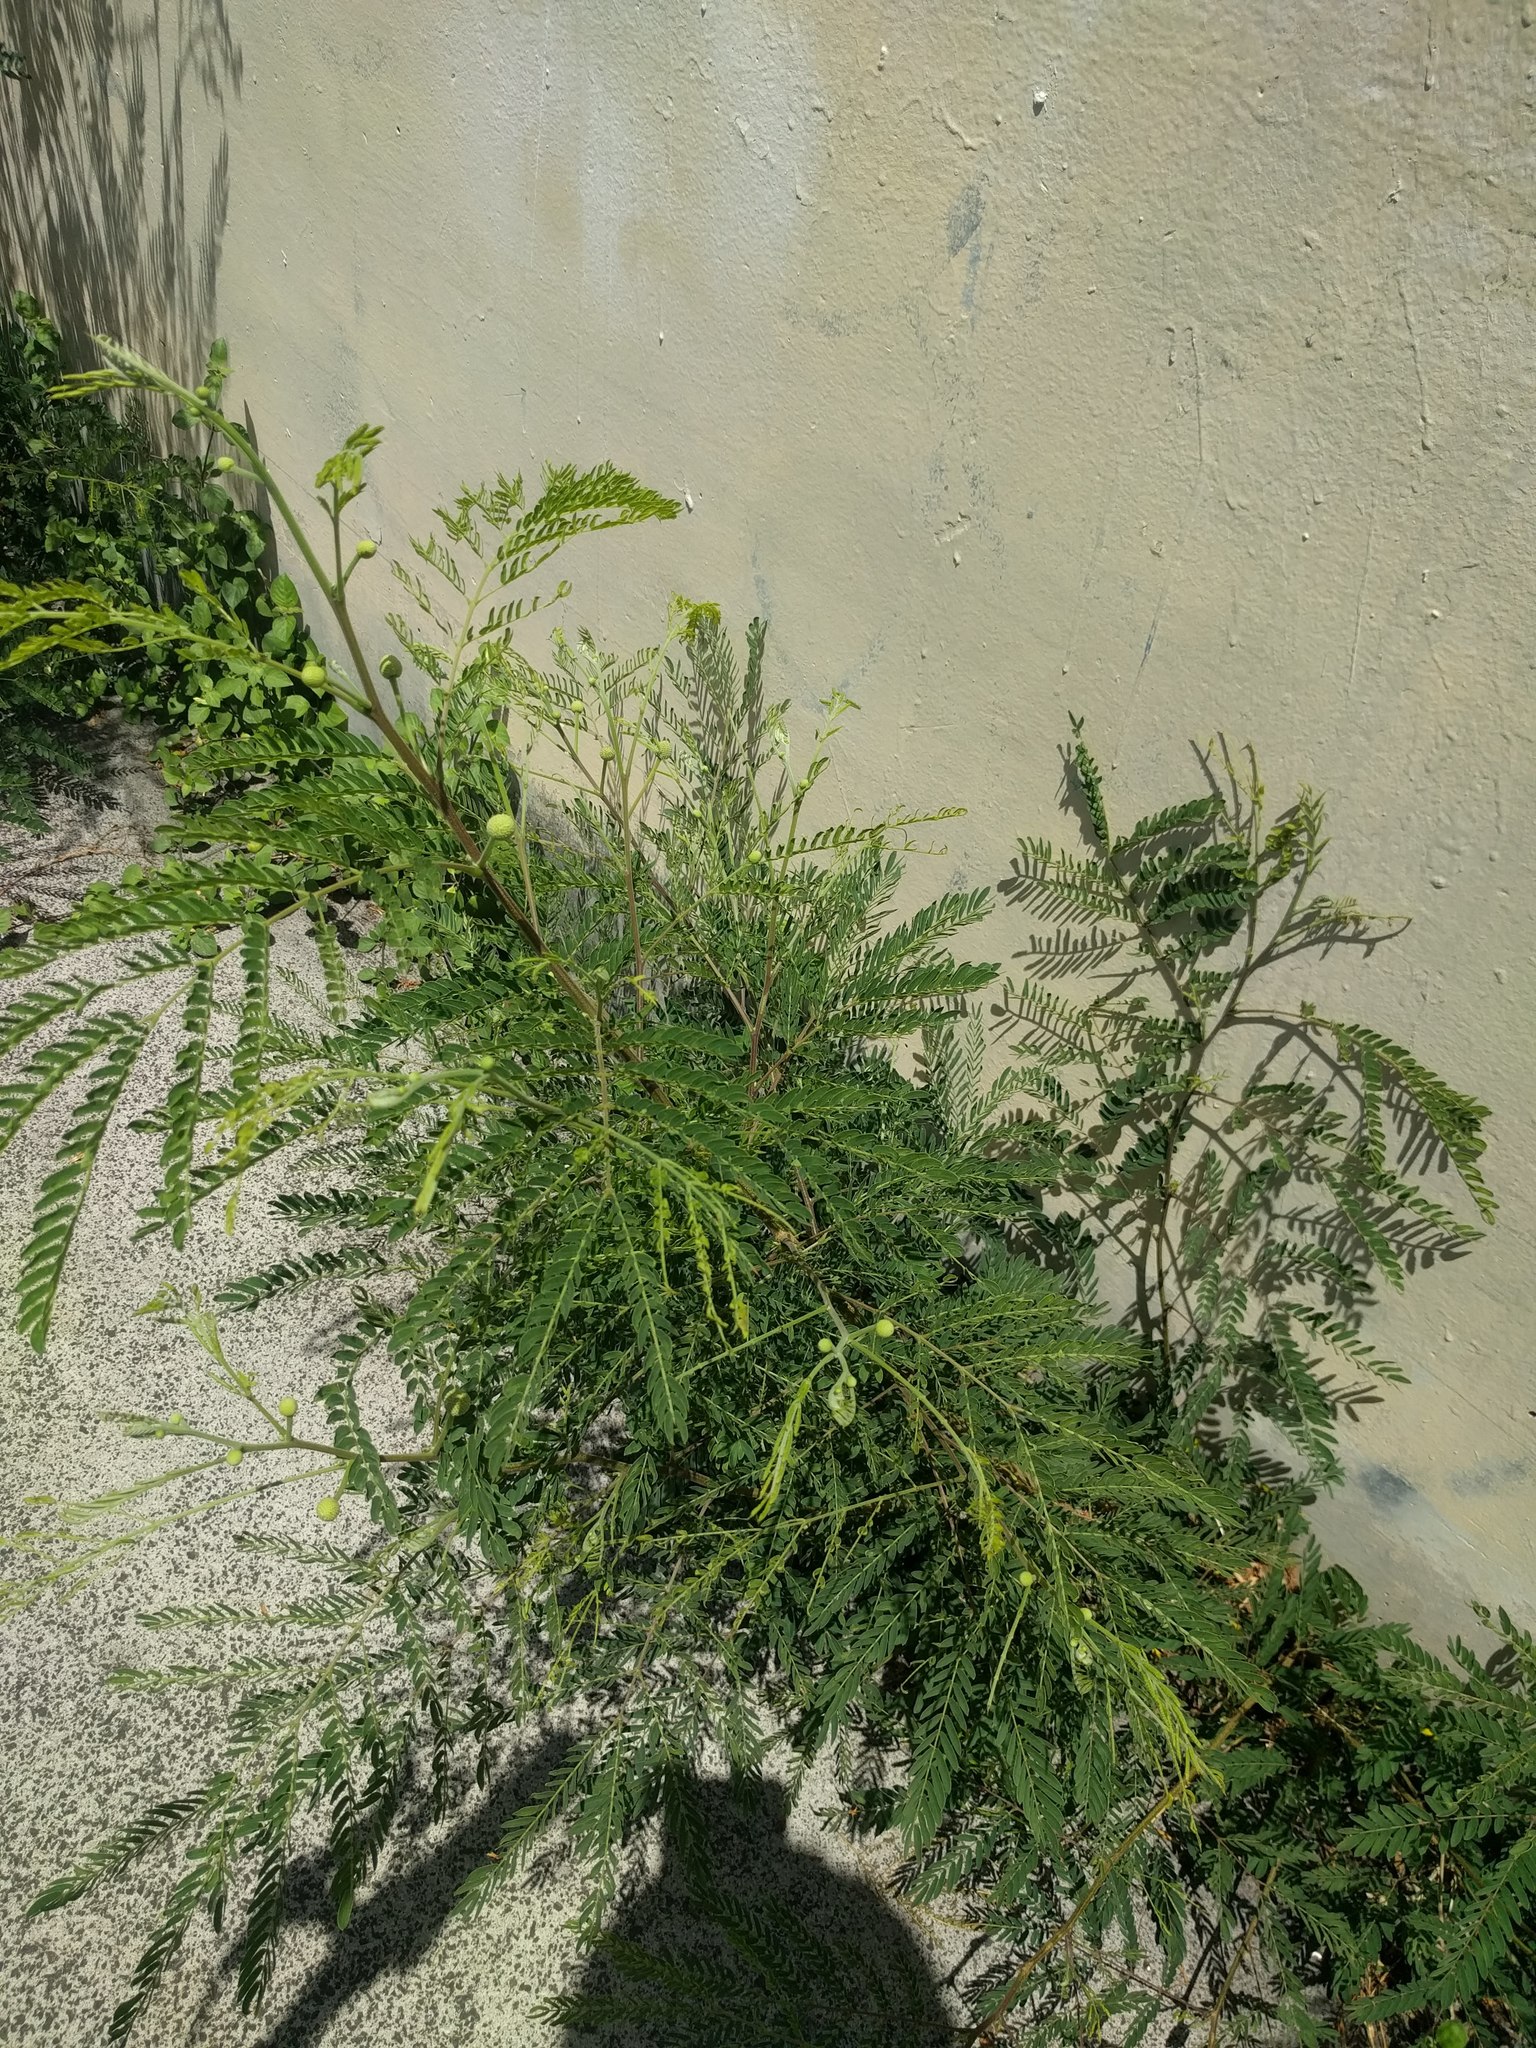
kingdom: Plantae
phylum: Tracheophyta
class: Magnoliopsida
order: Fabales
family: Fabaceae
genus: Leucaena
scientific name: Leucaena leucocephala
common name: White leadtree
